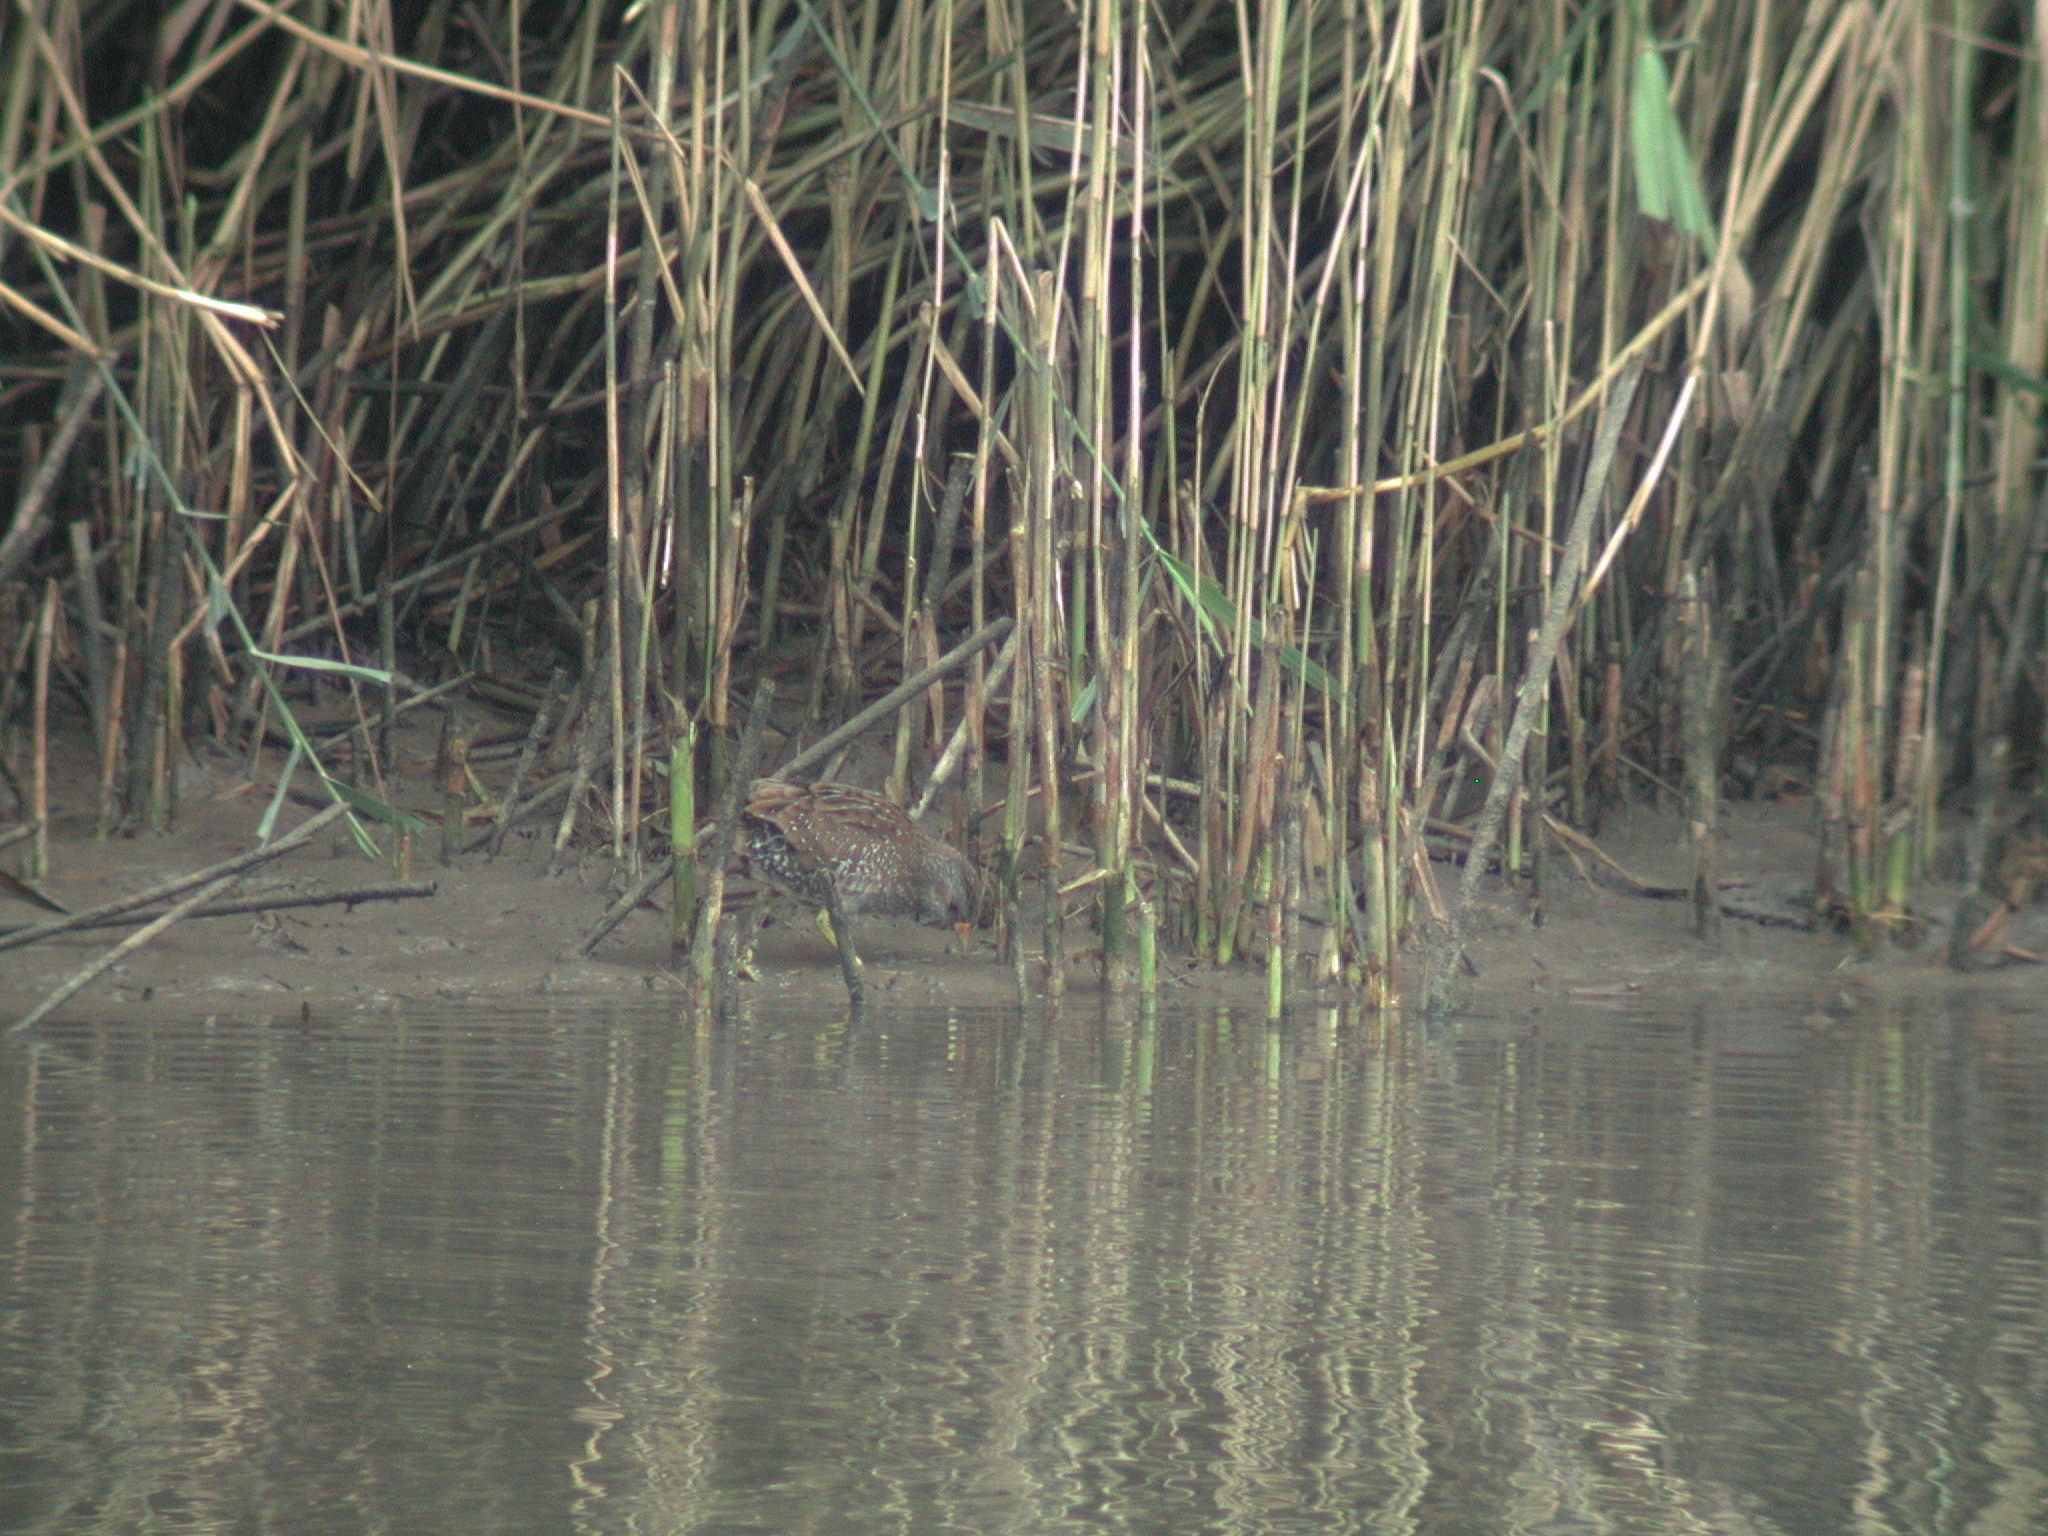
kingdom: Animalia
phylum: Chordata
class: Aves
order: Gruiformes
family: Rallidae
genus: Porzana
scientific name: Porzana porzana
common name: Spotted crake
